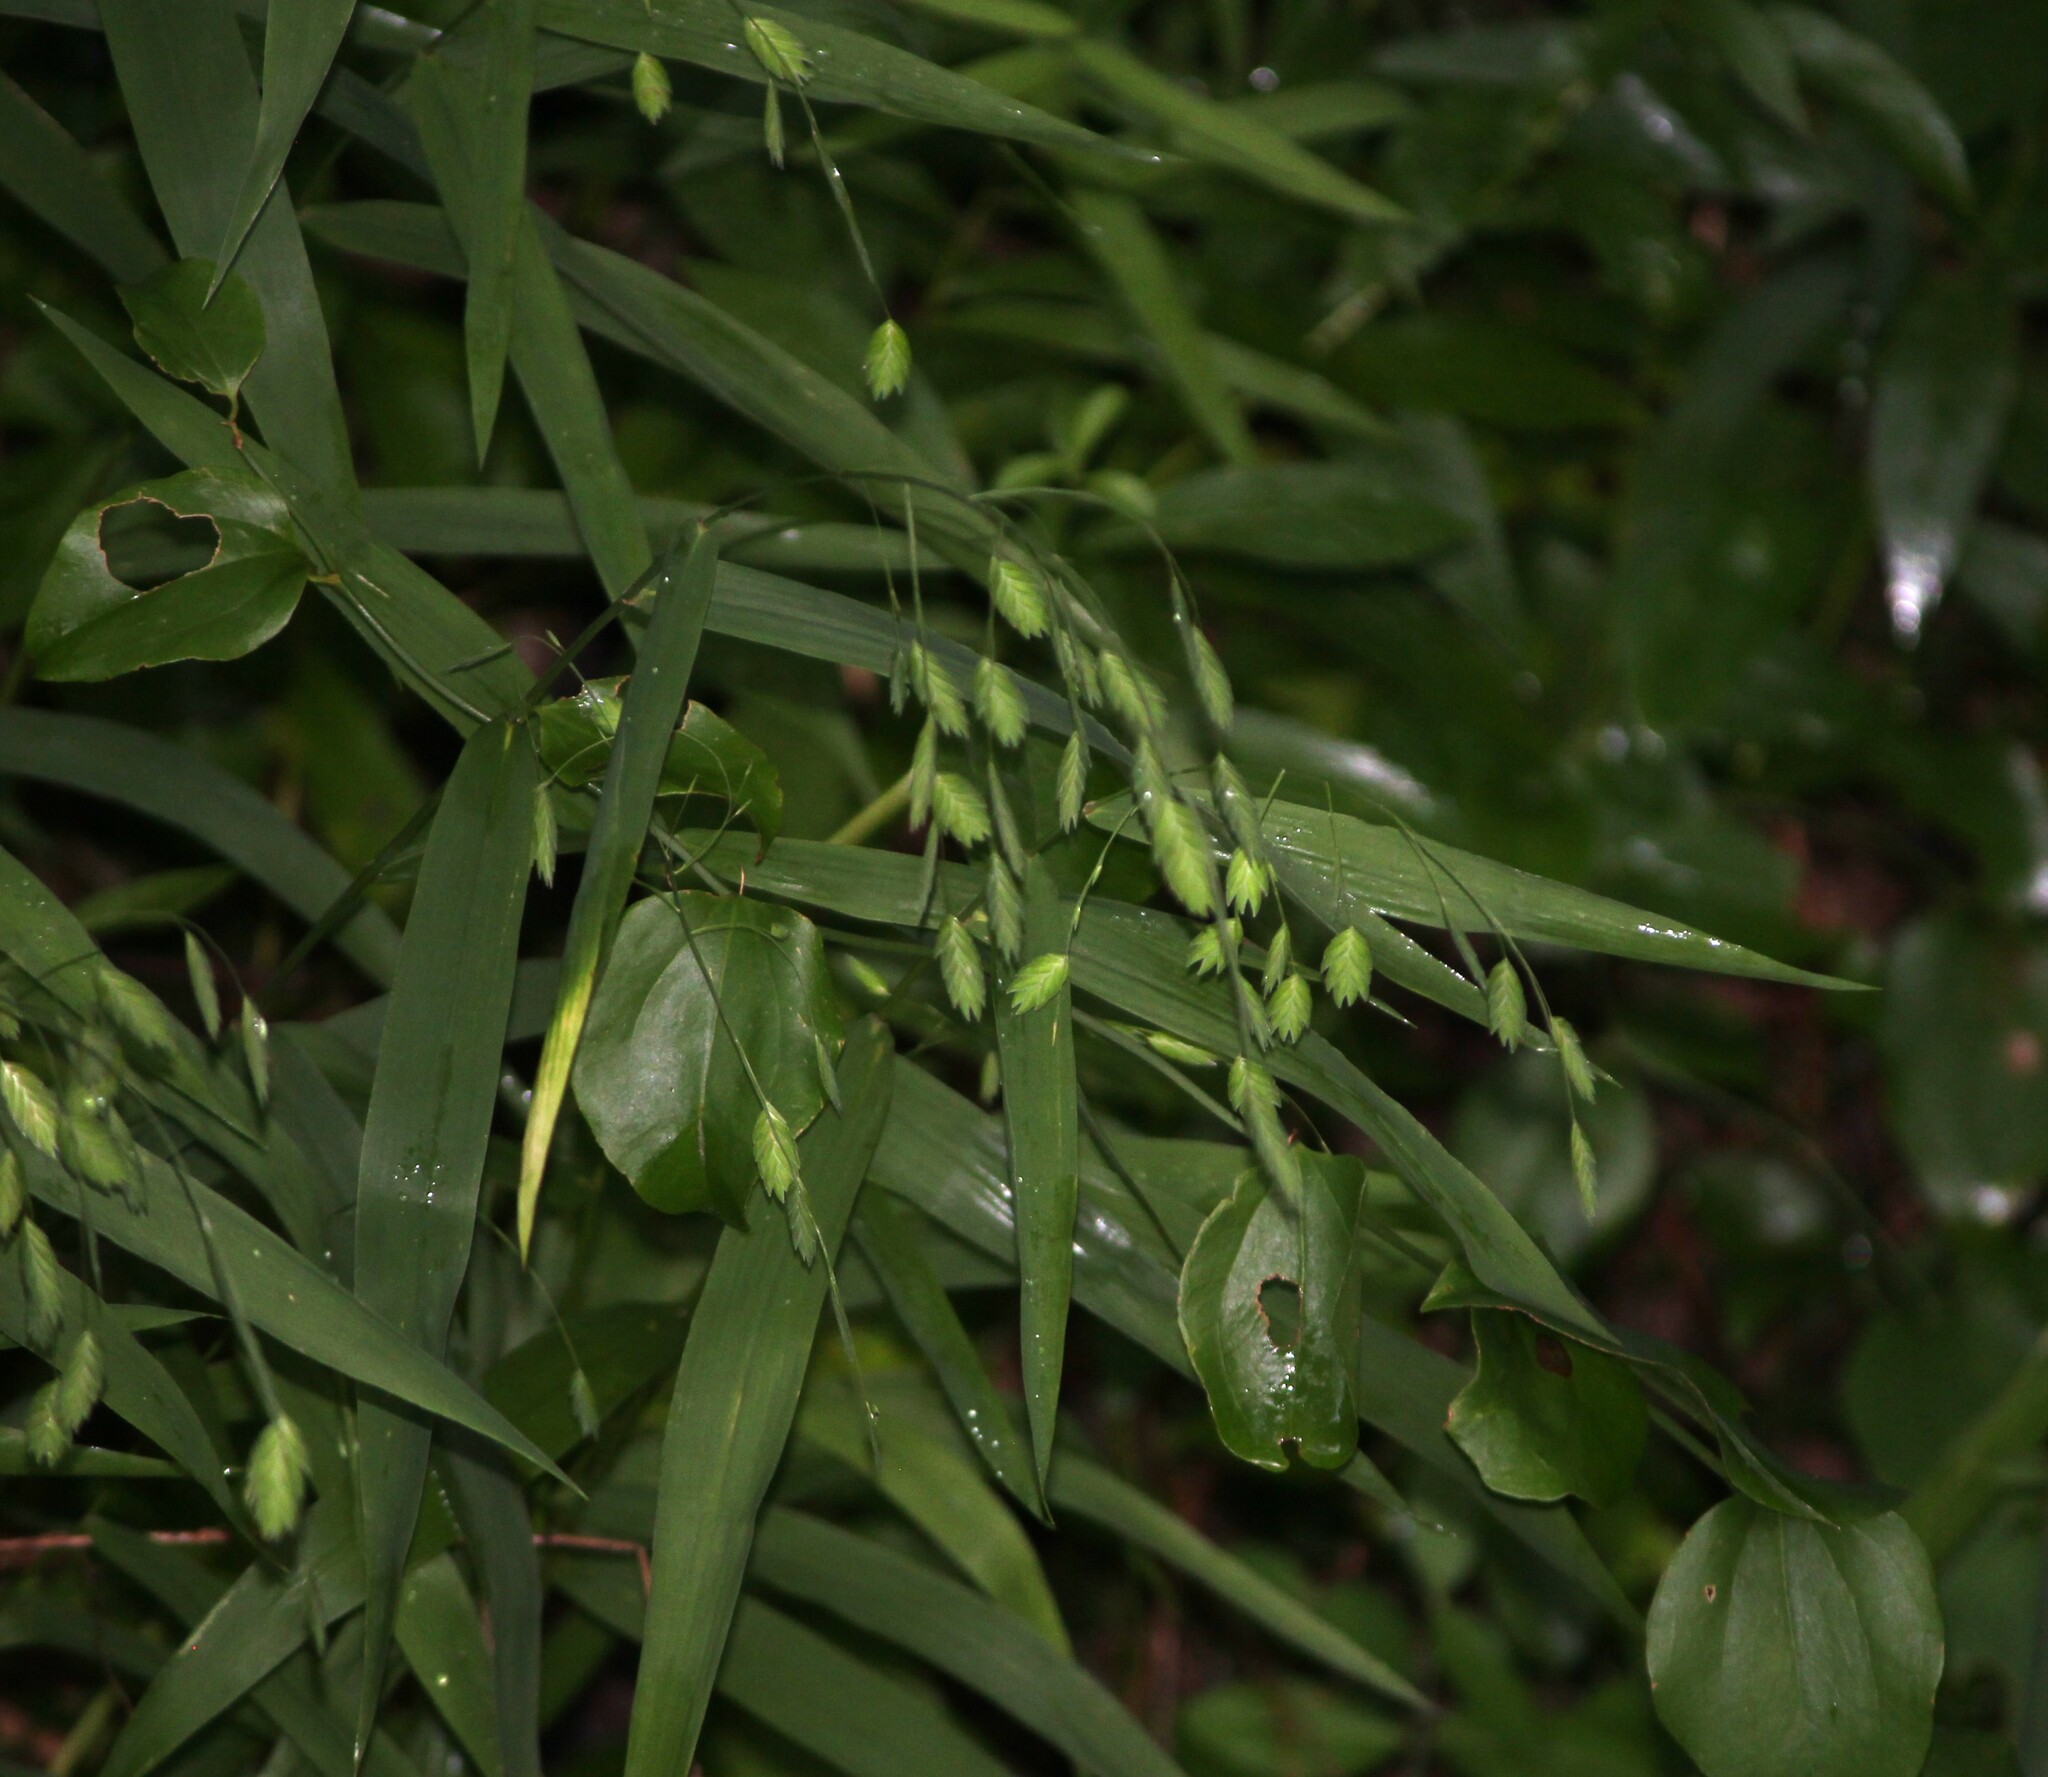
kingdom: Plantae
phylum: Tracheophyta
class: Liliopsida
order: Poales
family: Poaceae
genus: Chasmanthium
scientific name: Chasmanthium latifolium
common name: Broad-leaved chasmanthium
